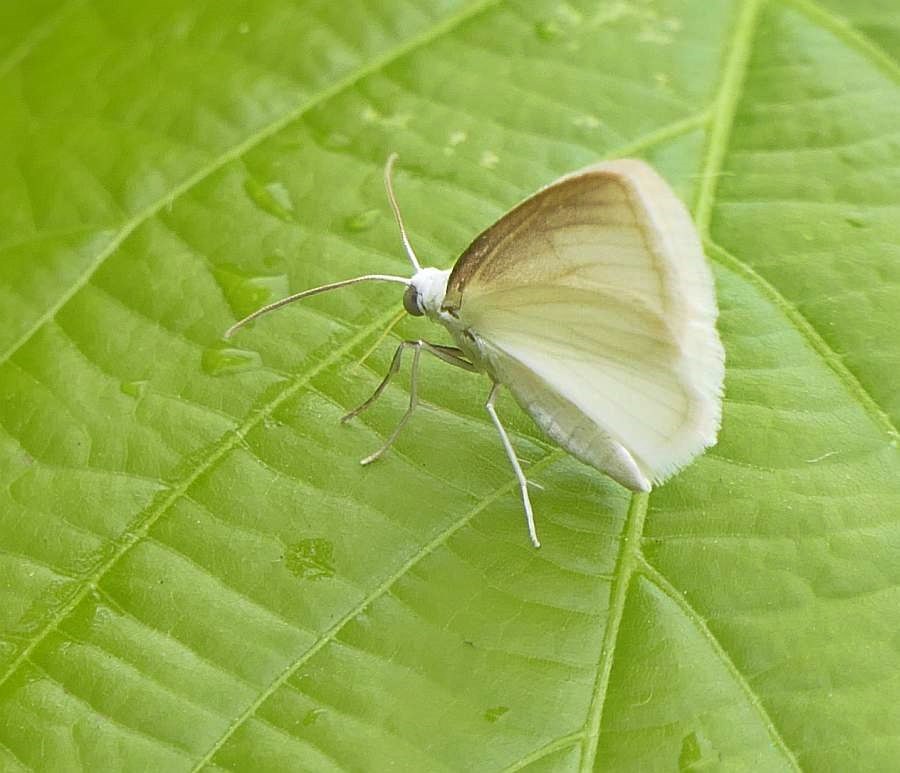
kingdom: Animalia
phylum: Arthropoda
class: Insecta
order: Lepidoptera
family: Geometridae
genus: Lomographa
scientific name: Lomographa vestaliata
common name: White spring moth
